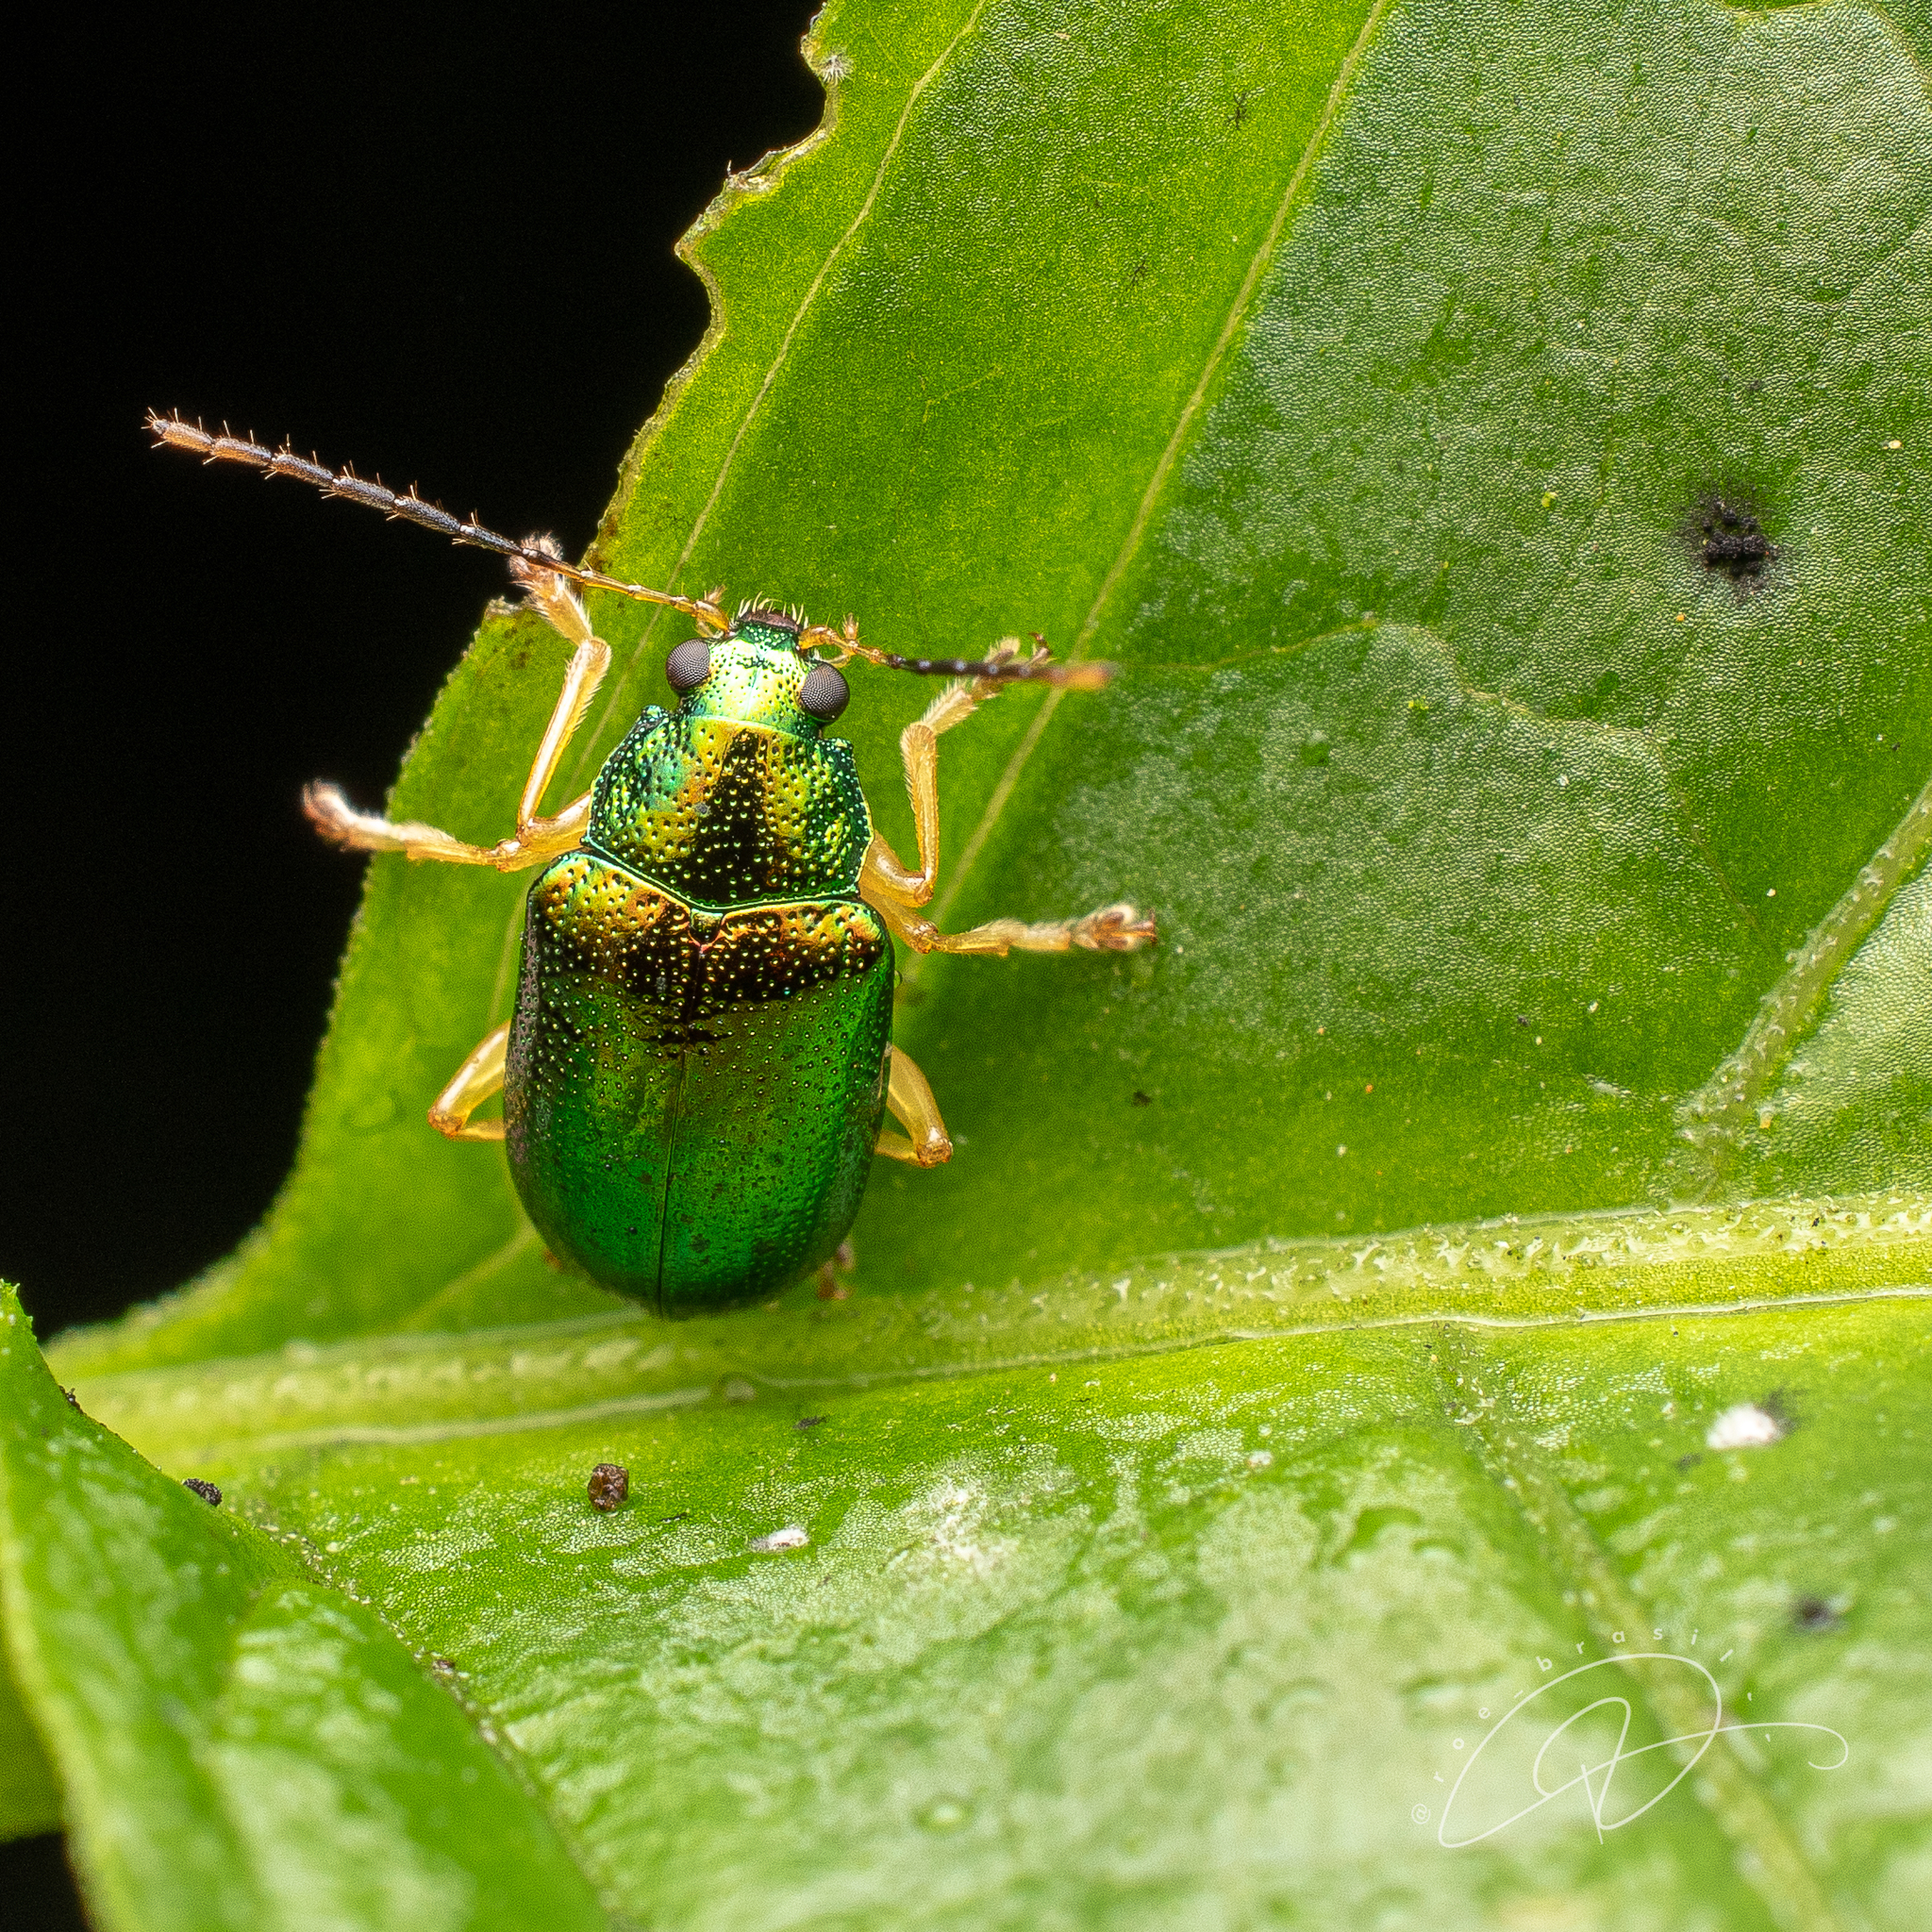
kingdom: Animalia
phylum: Arthropoda
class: Insecta
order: Coleoptera
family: Chrysomelidae
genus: Colaspis
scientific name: Colaspis
